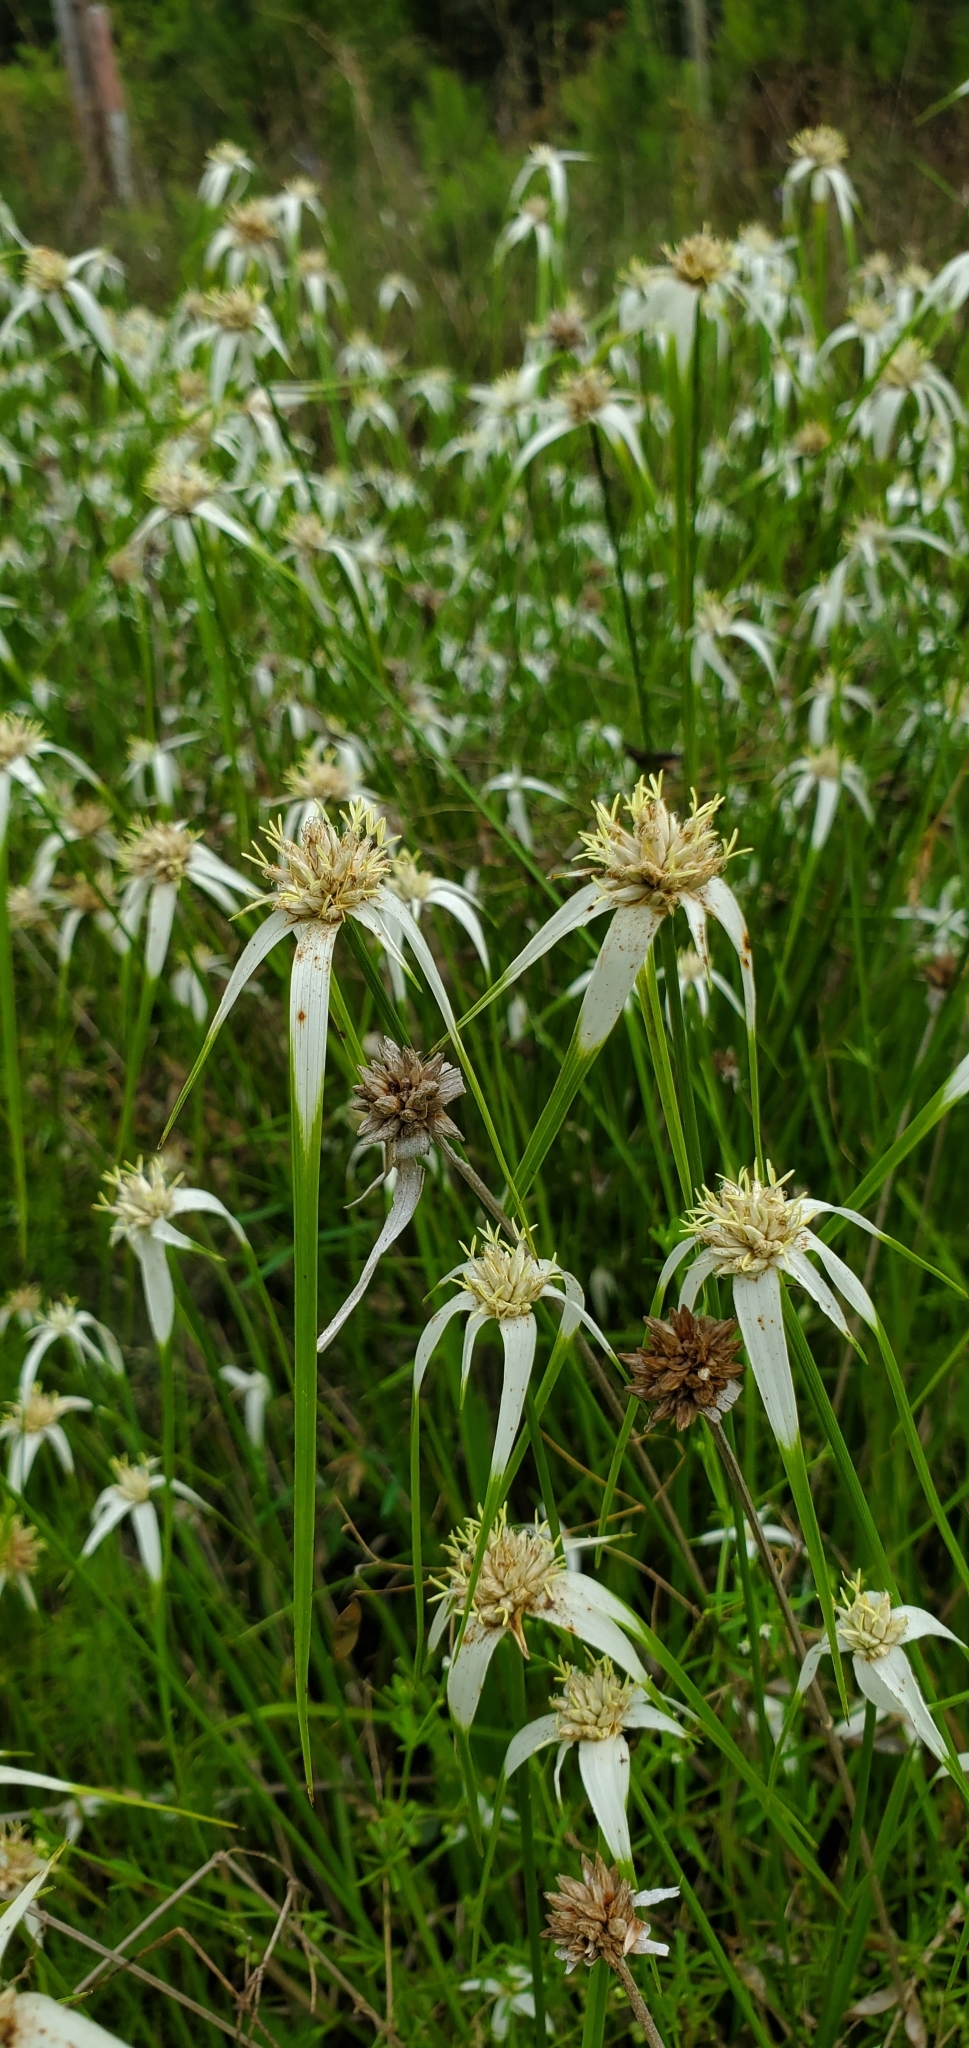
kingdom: Plantae
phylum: Tracheophyta
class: Liliopsida
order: Poales
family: Cyperaceae
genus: Rhynchospora
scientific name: Rhynchospora colorata
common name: Star sedge
